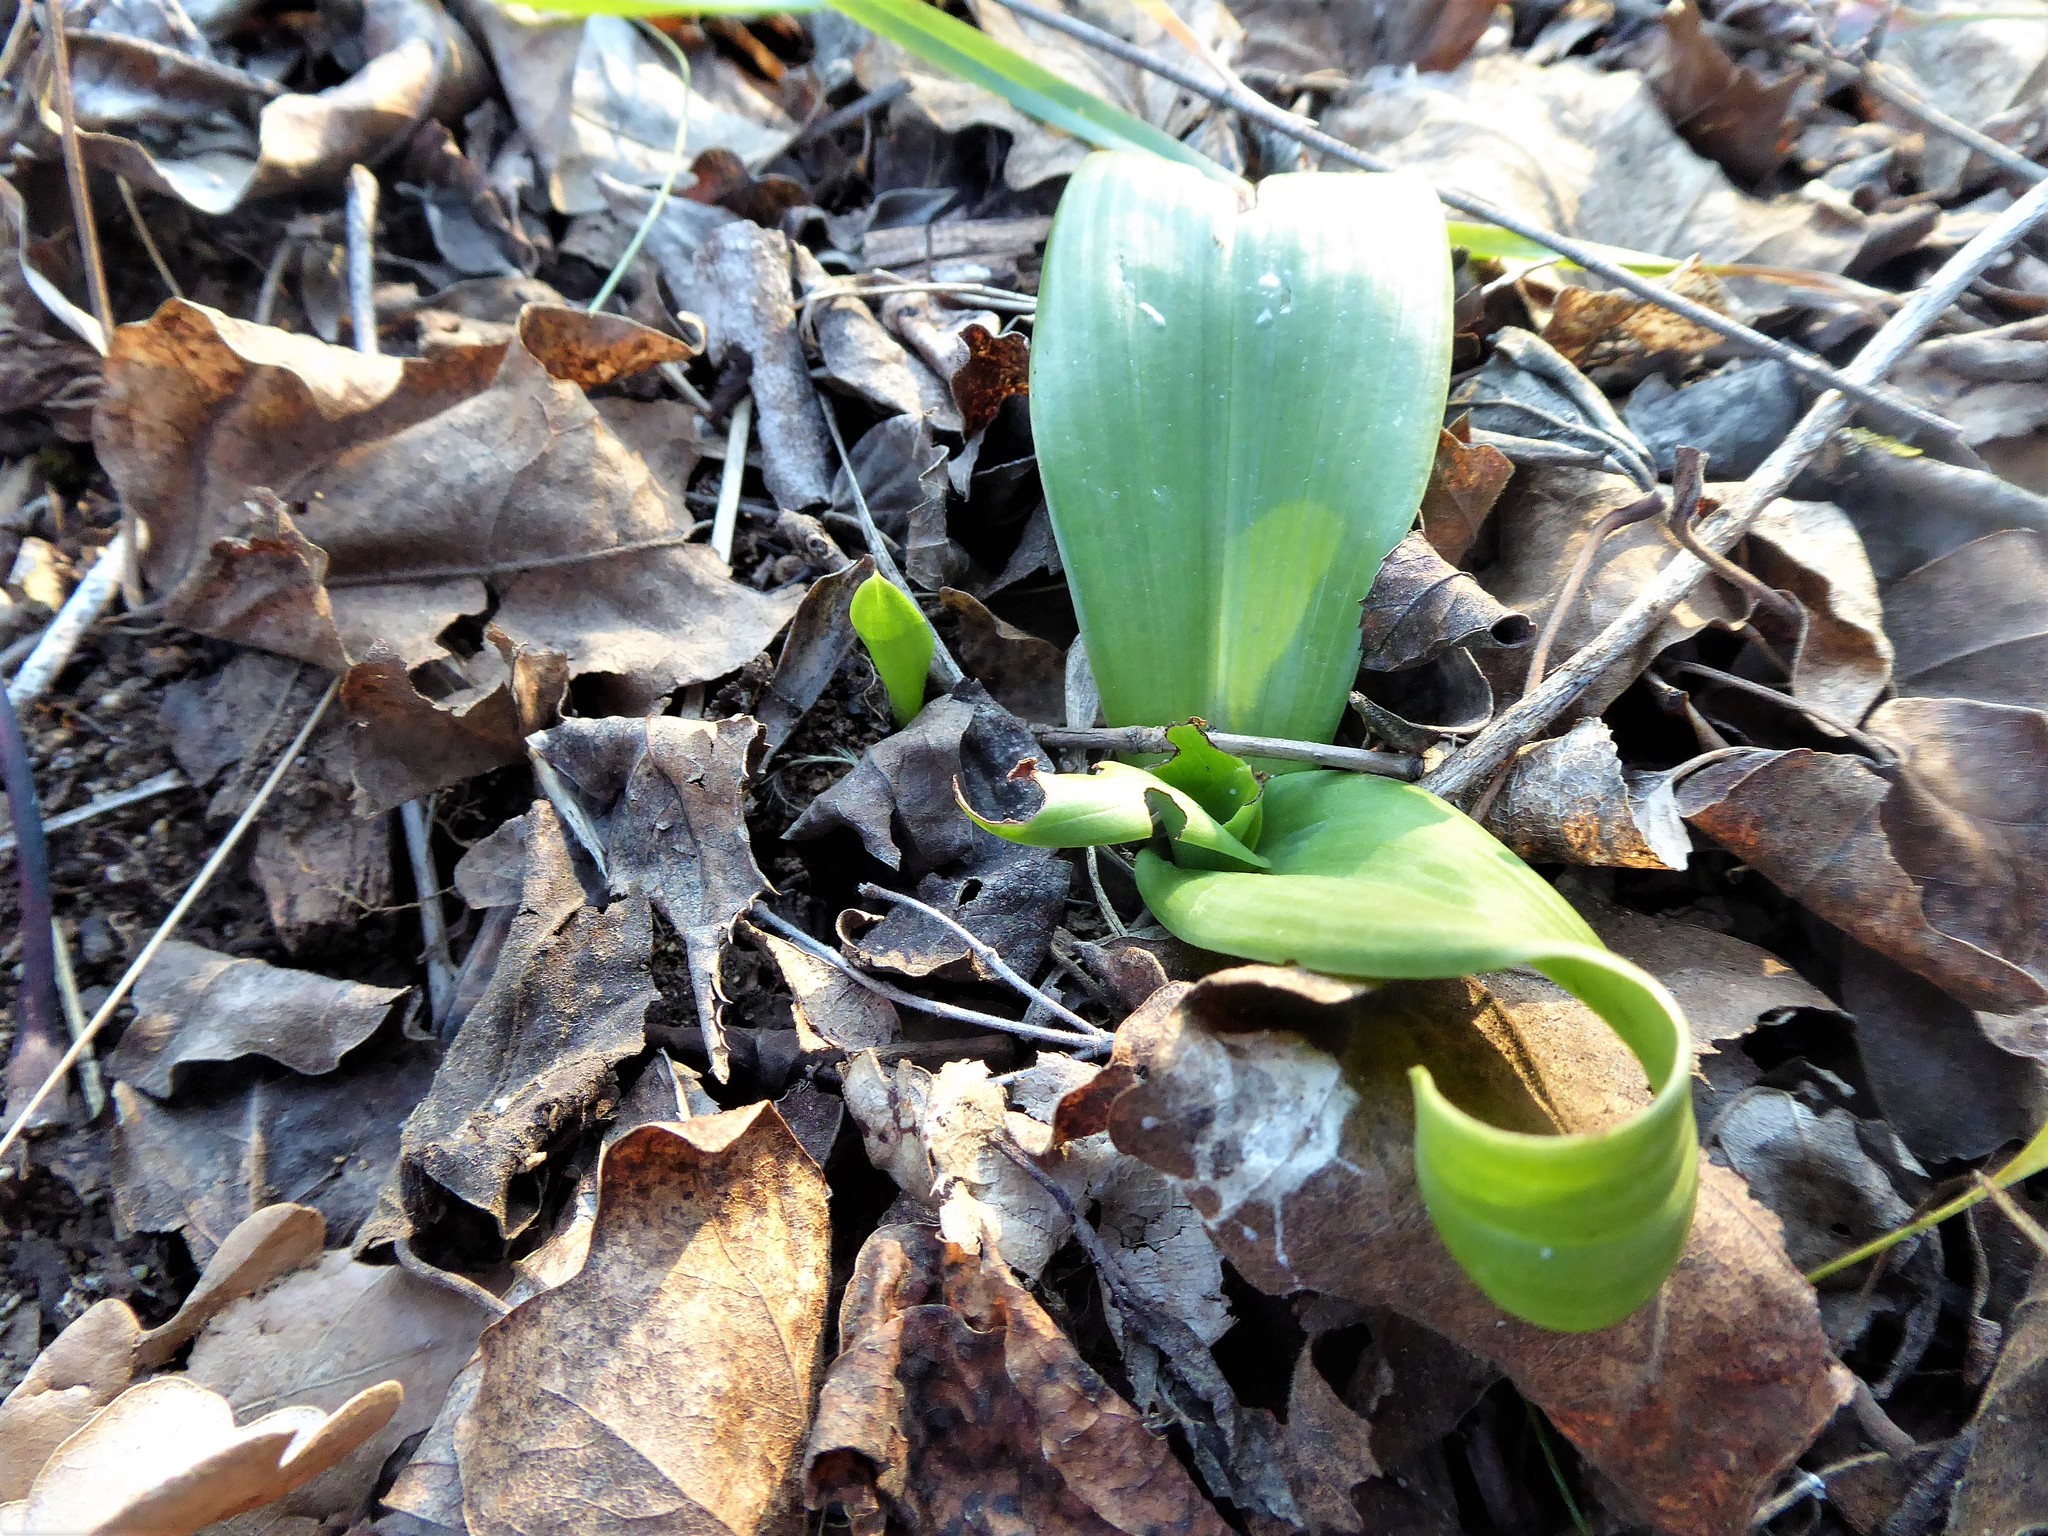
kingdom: Plantae
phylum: Tracheophyta
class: Liliopsida
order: Asparagales
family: Orchidaceae
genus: Himantoglossum
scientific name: Himantoglossum adriaticum
